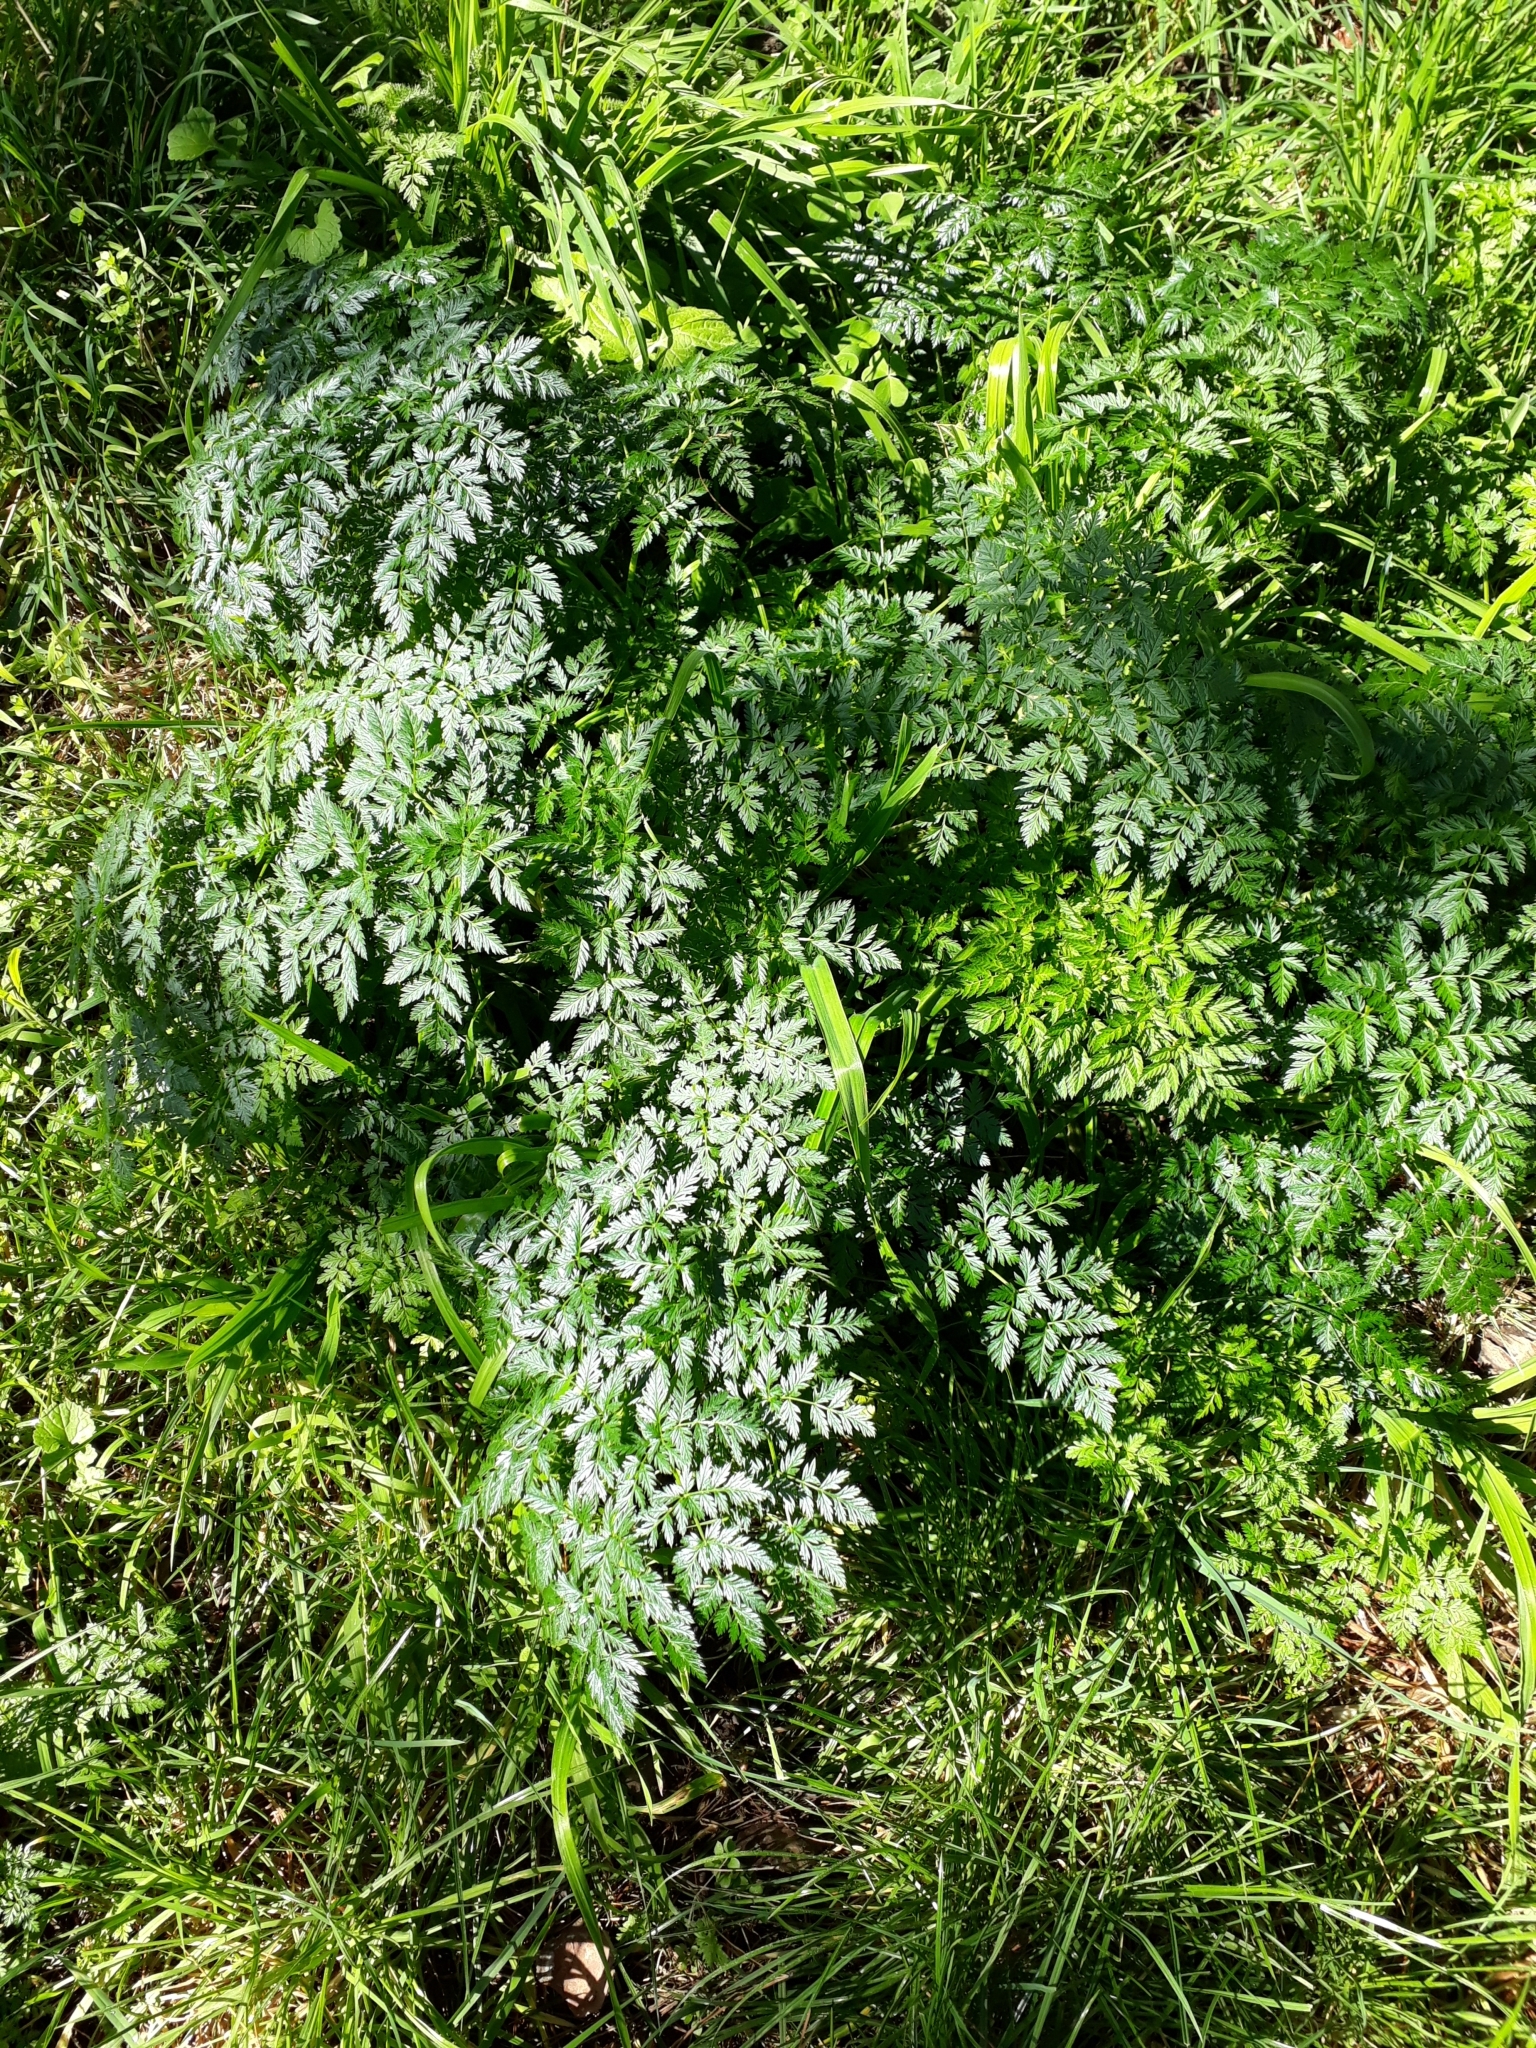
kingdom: Plantae
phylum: Tracheophyta
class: Magnoliopsida
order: Apiales
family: Apiaceae
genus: Conium
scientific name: Conium maculatum
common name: Hemlock
